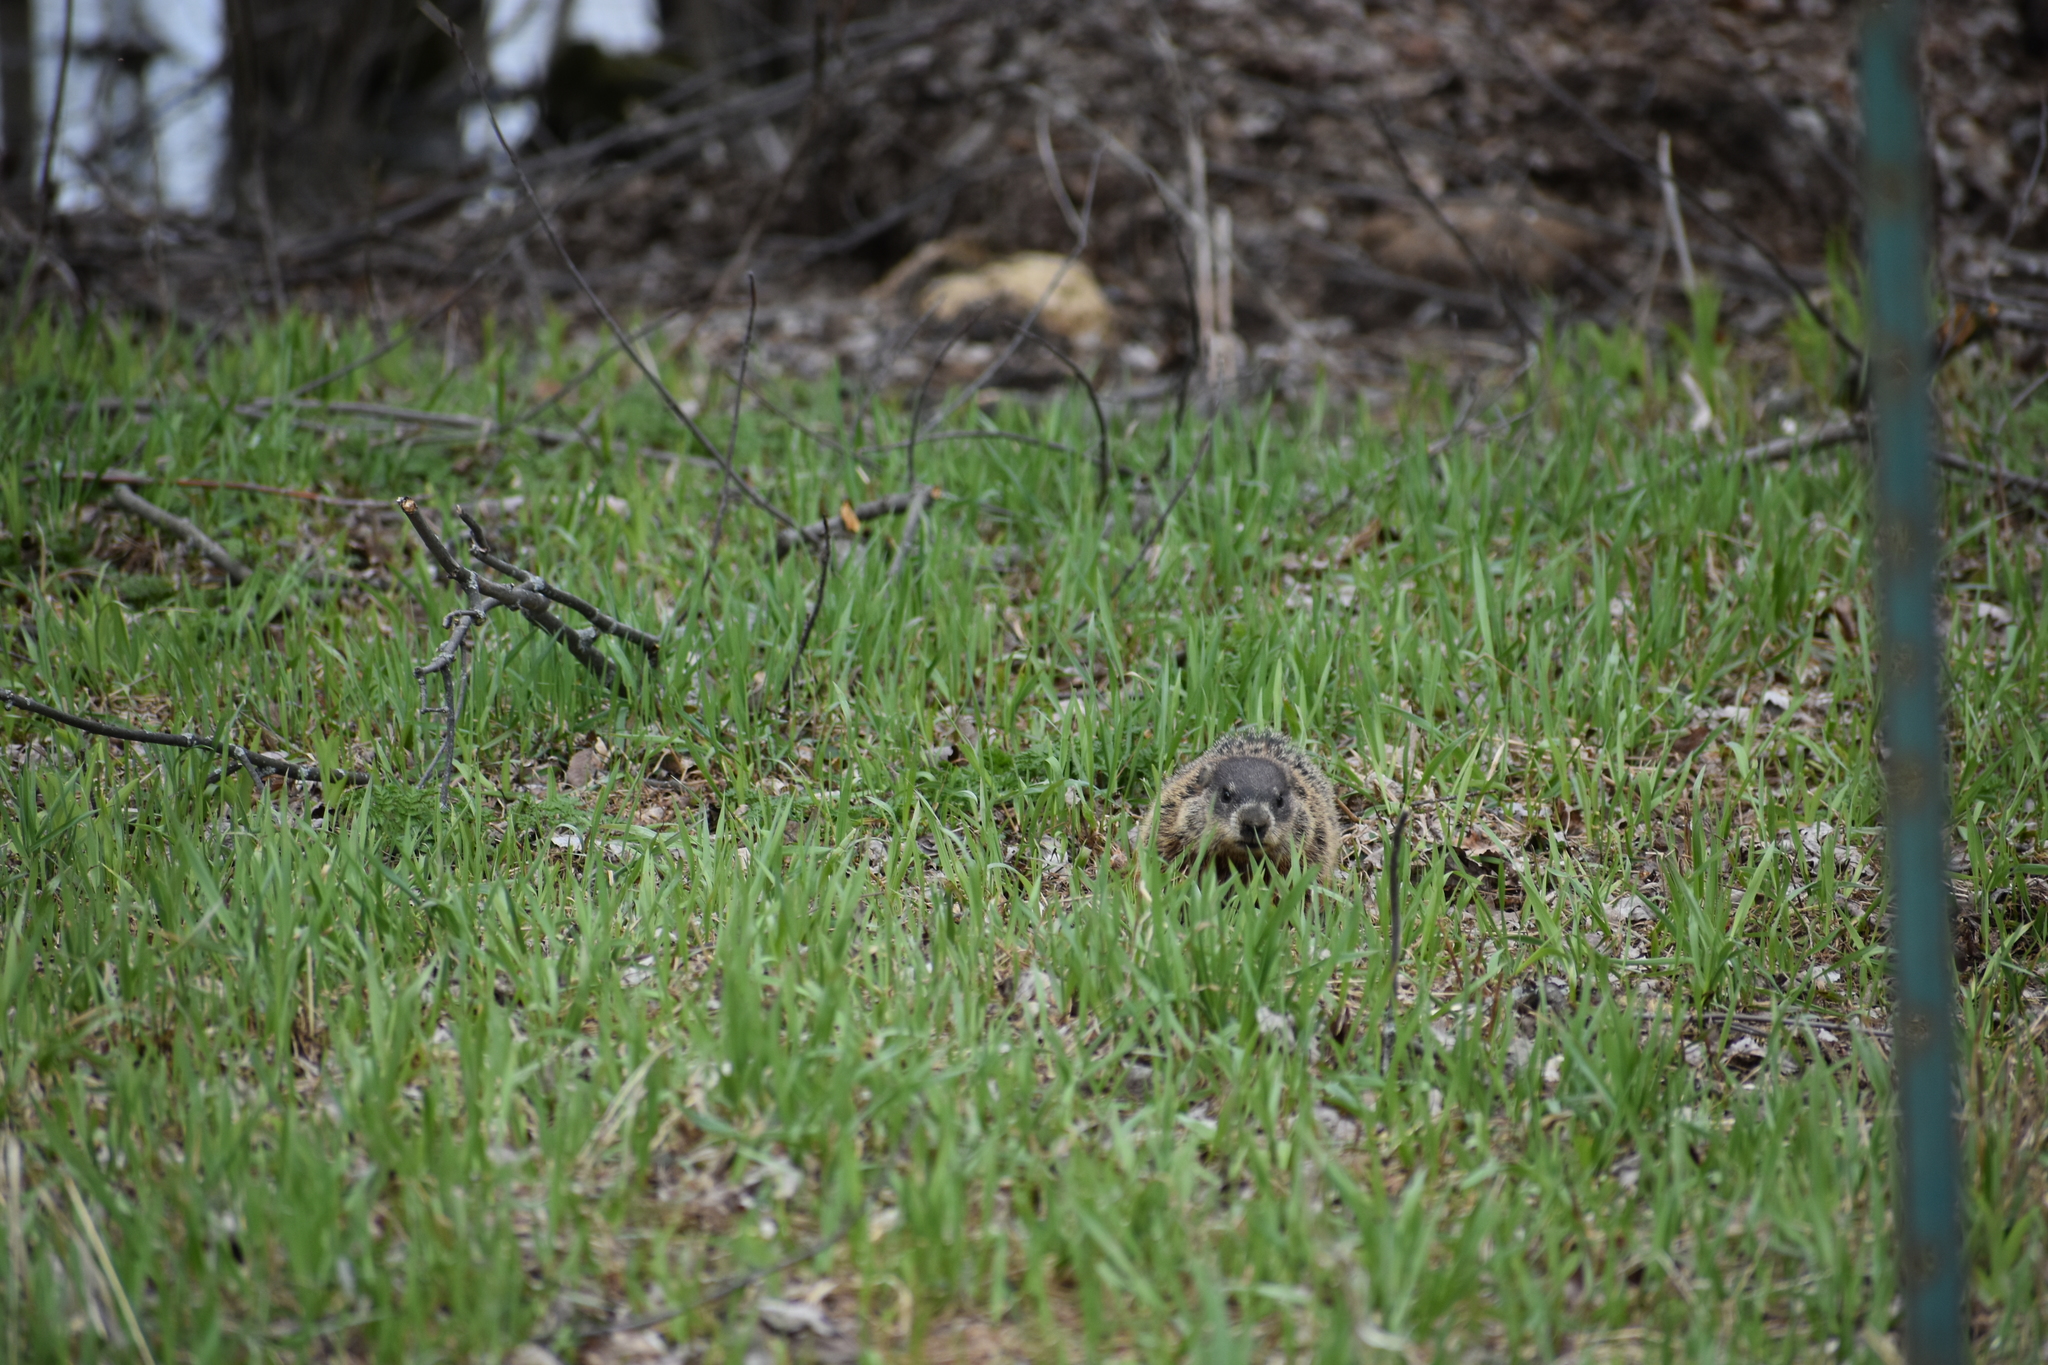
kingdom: Animalia
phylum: Chordata
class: Mammalia
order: Rodentia
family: Sciuridae
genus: Marmota
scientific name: Marmota monax
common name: Groundhog
